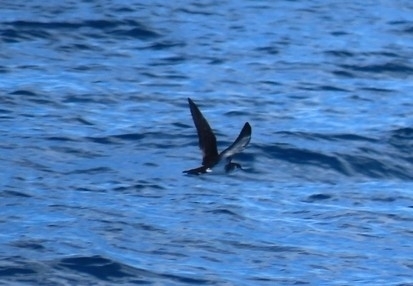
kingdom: Animalia
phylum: Chordata
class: Aves
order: Procellariiformes
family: Procellariidae
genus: Puffinus
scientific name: Puffinus lherminieri
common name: Audubon's shearwater
